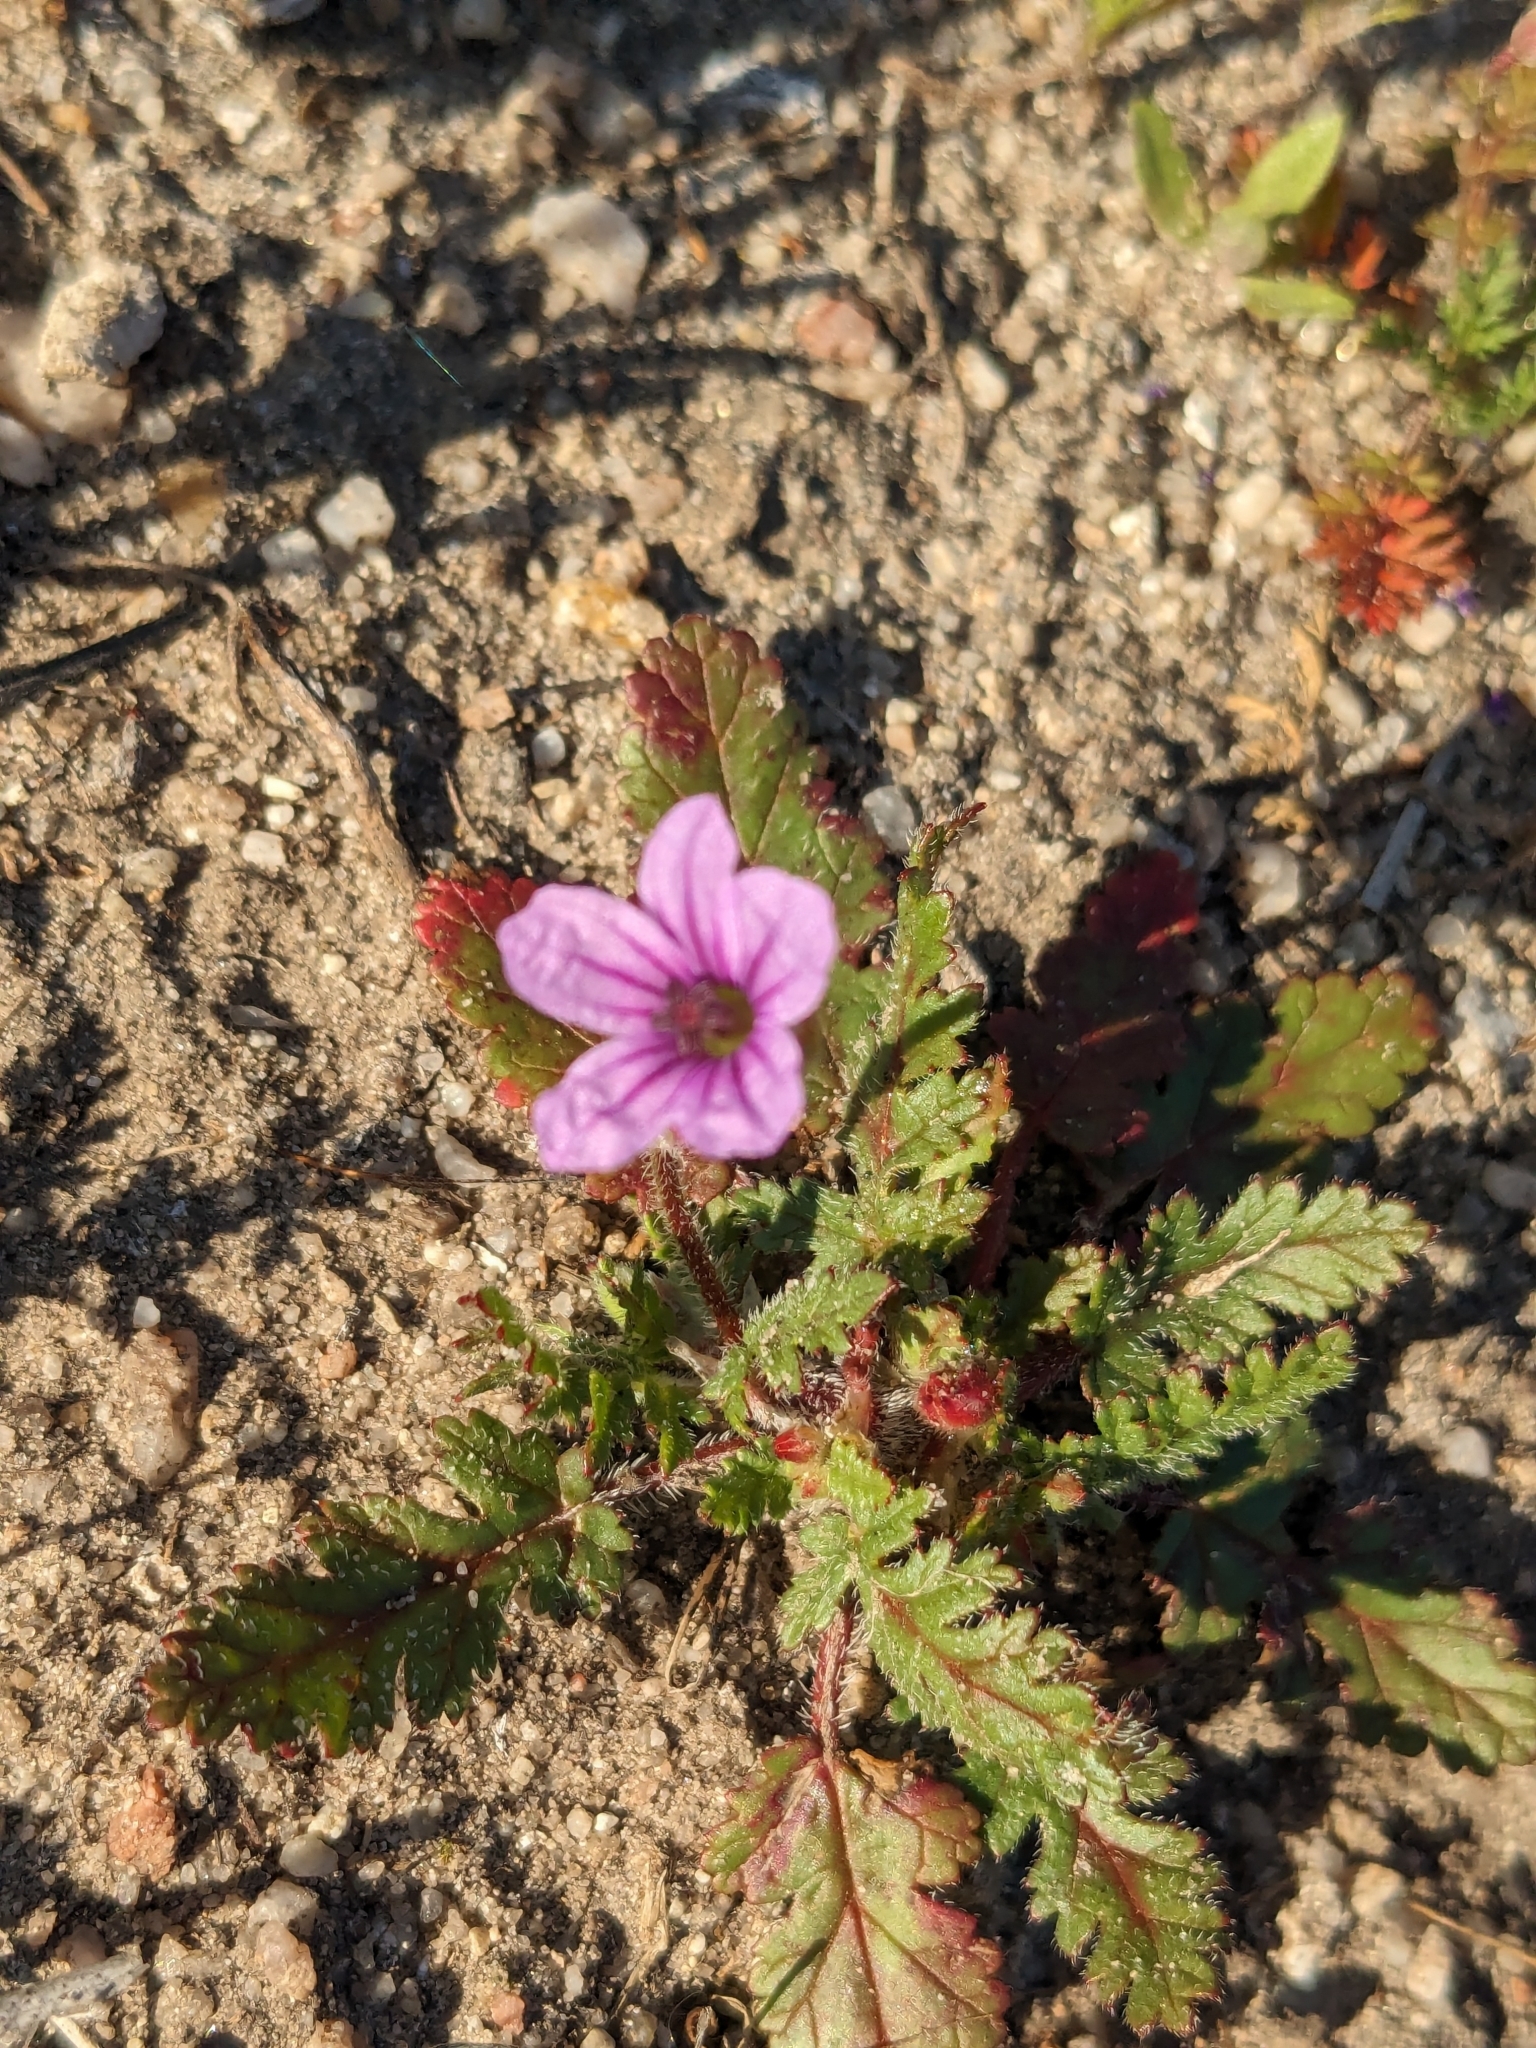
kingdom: Plantae
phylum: Tracheophyta
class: Magnoliopsida
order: Geraniales
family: Geraniaceae
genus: Erodium
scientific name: Erodium botrys
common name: Mediterranean stork's-bill
